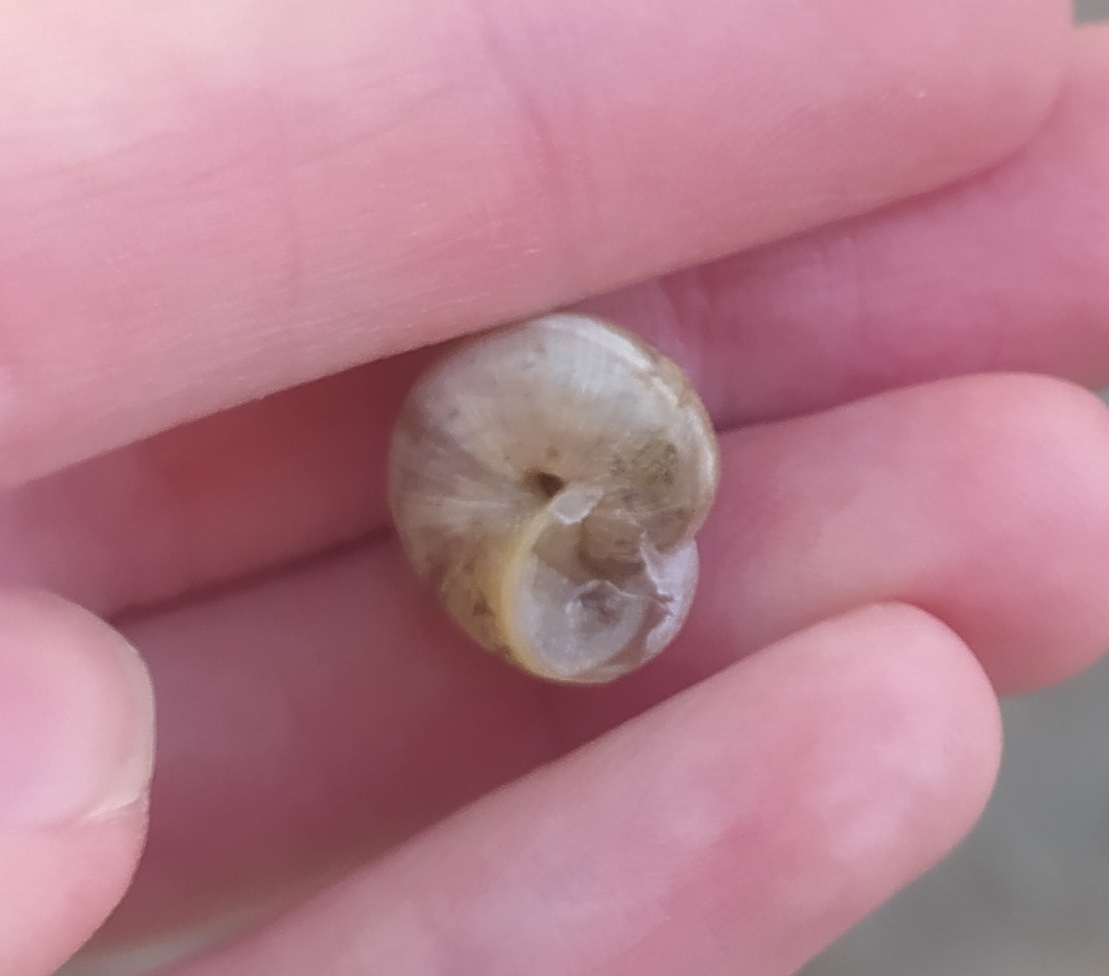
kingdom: Animalia
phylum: Mollusca
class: Gastropoda
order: Stylommatophora
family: Hygromiidae
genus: Harmozica
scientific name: Harmozica ravergiensis
